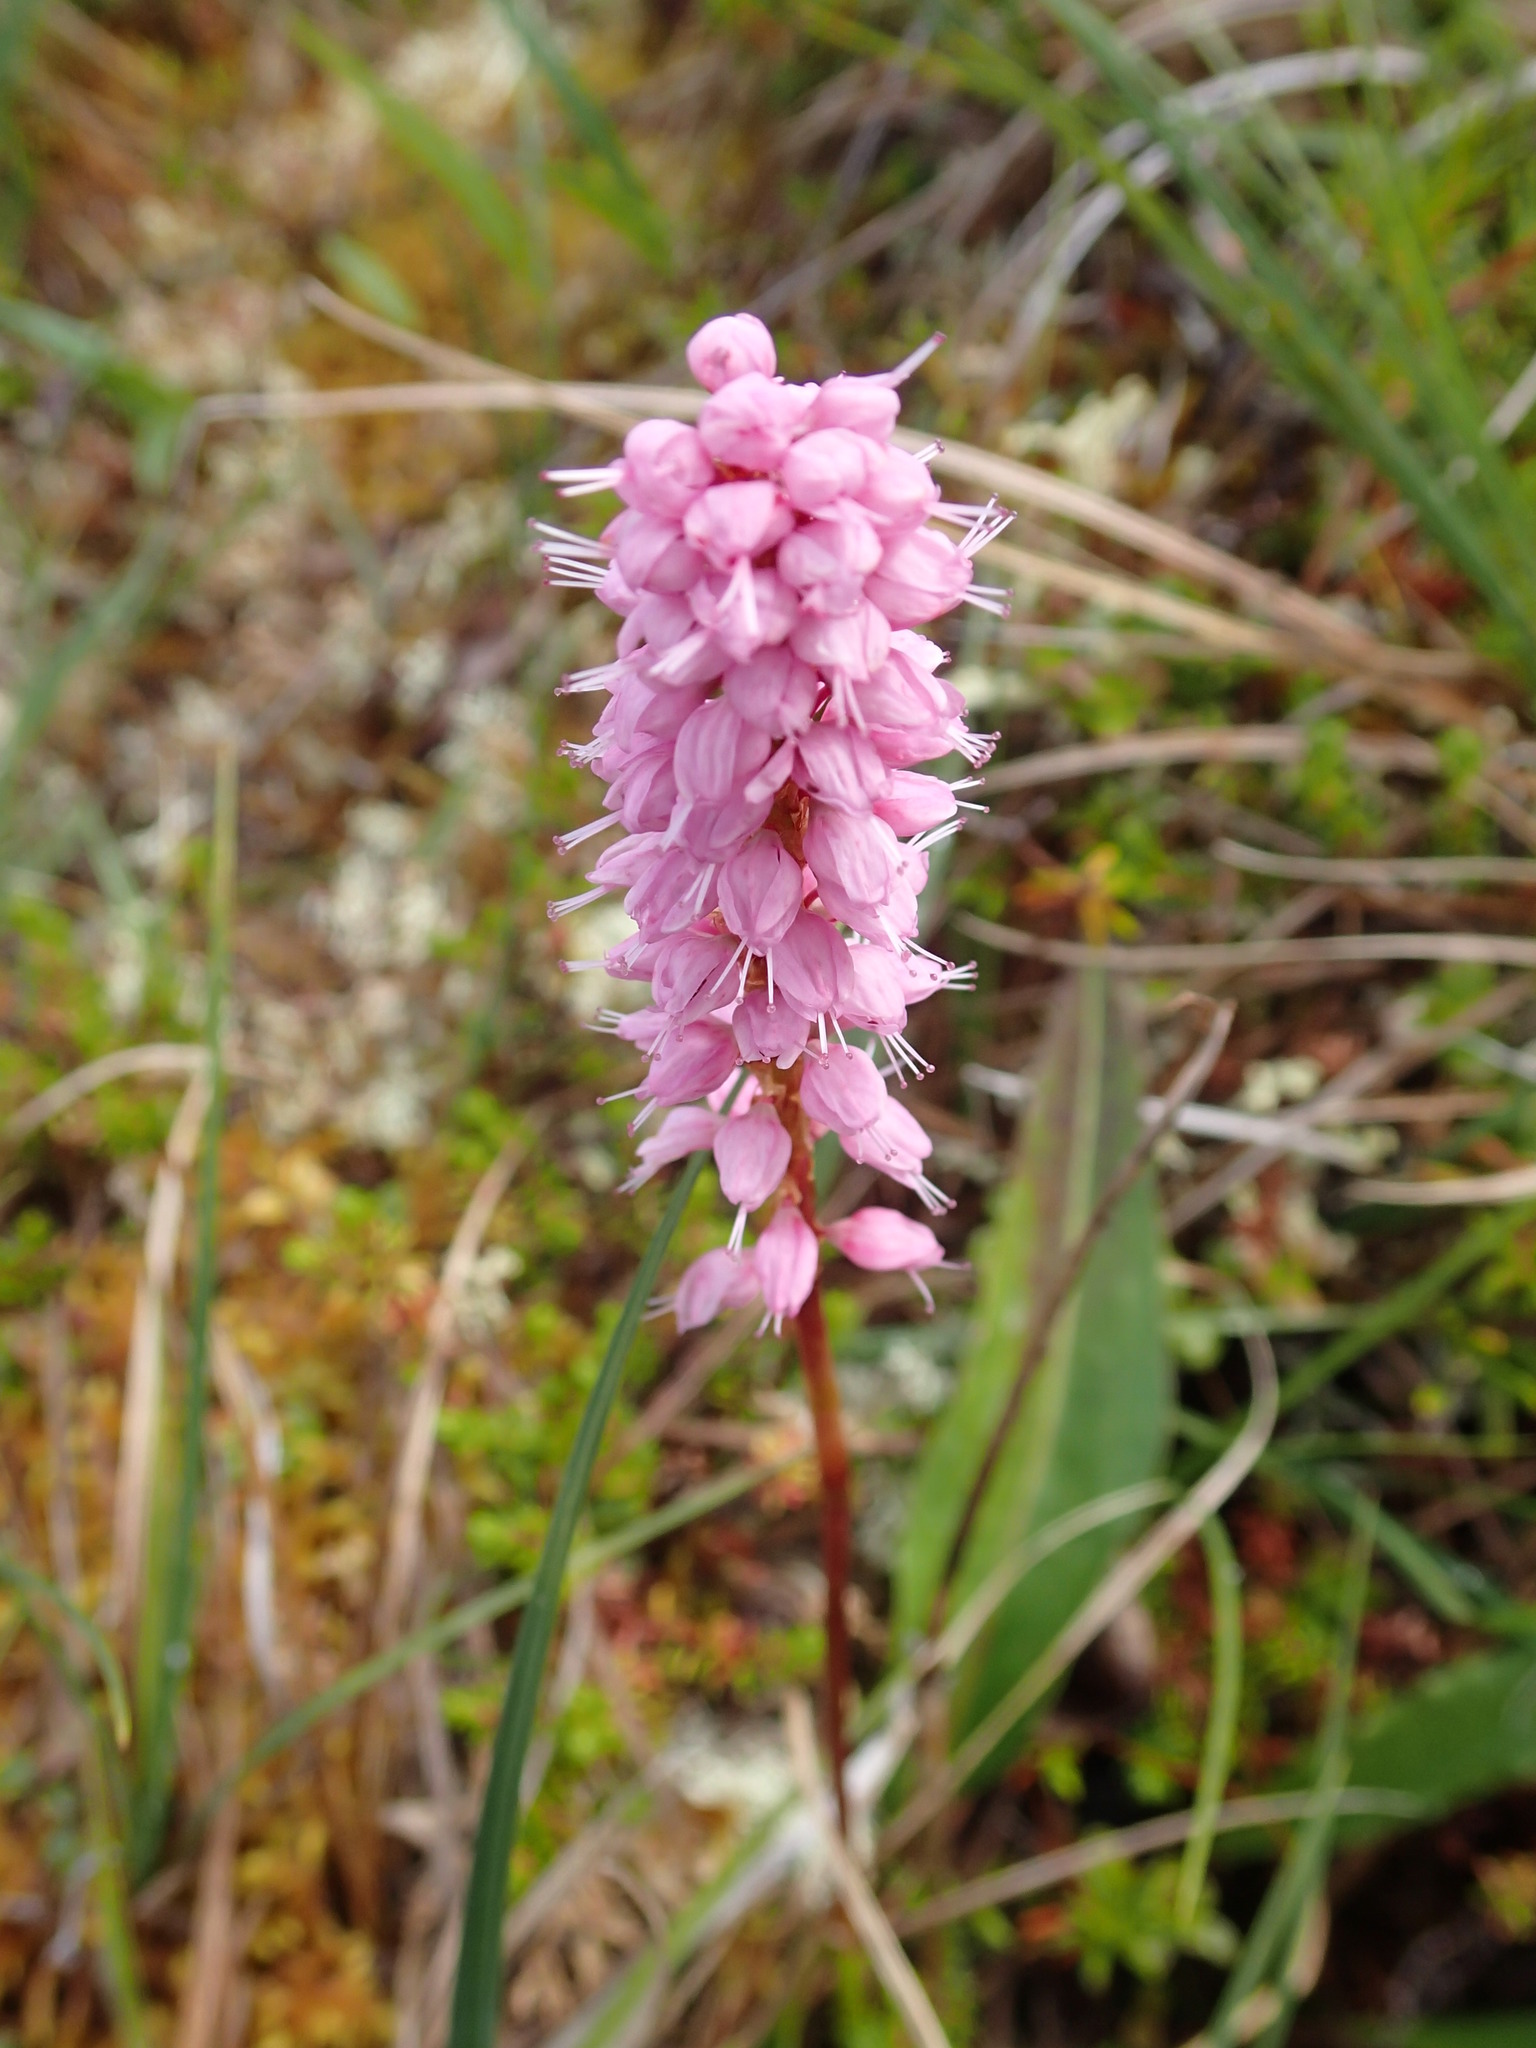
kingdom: Plantae
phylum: Tracheophyta
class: Magnoliopsida
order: Caryophyllales
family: Polygonaceae
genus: Bistorta
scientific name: Bistorta plumosa
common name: Meadow bistort
